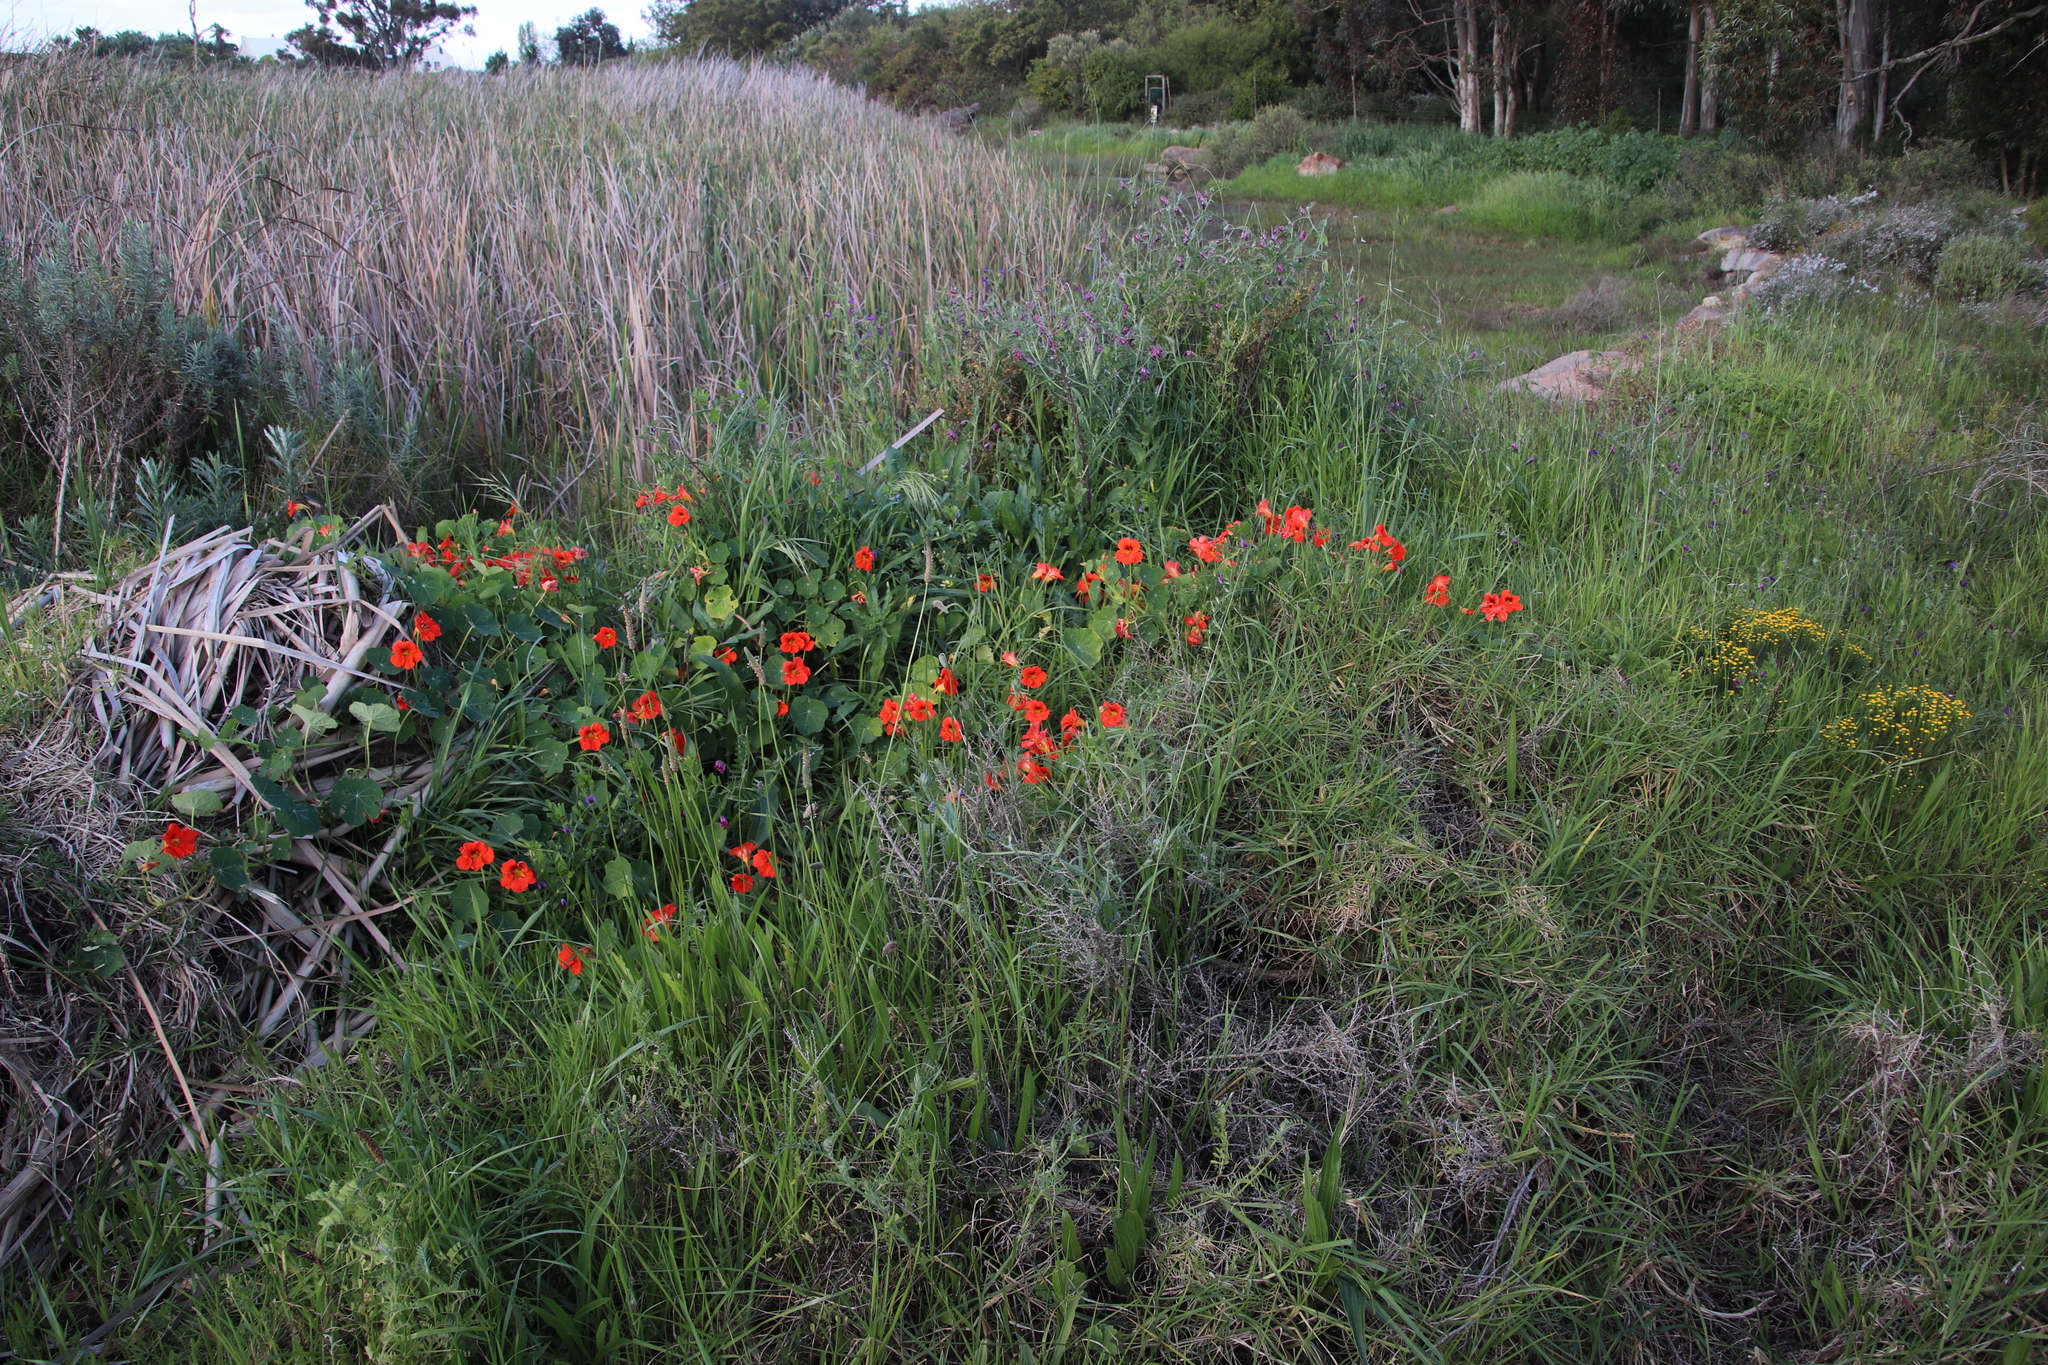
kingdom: Plantae
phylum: Tracheophyta
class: Magnoliopsida
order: Brassicales
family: Tropaeolaceae
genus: Tropaeolum
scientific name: Tropaeolum majus
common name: Nasturtium
